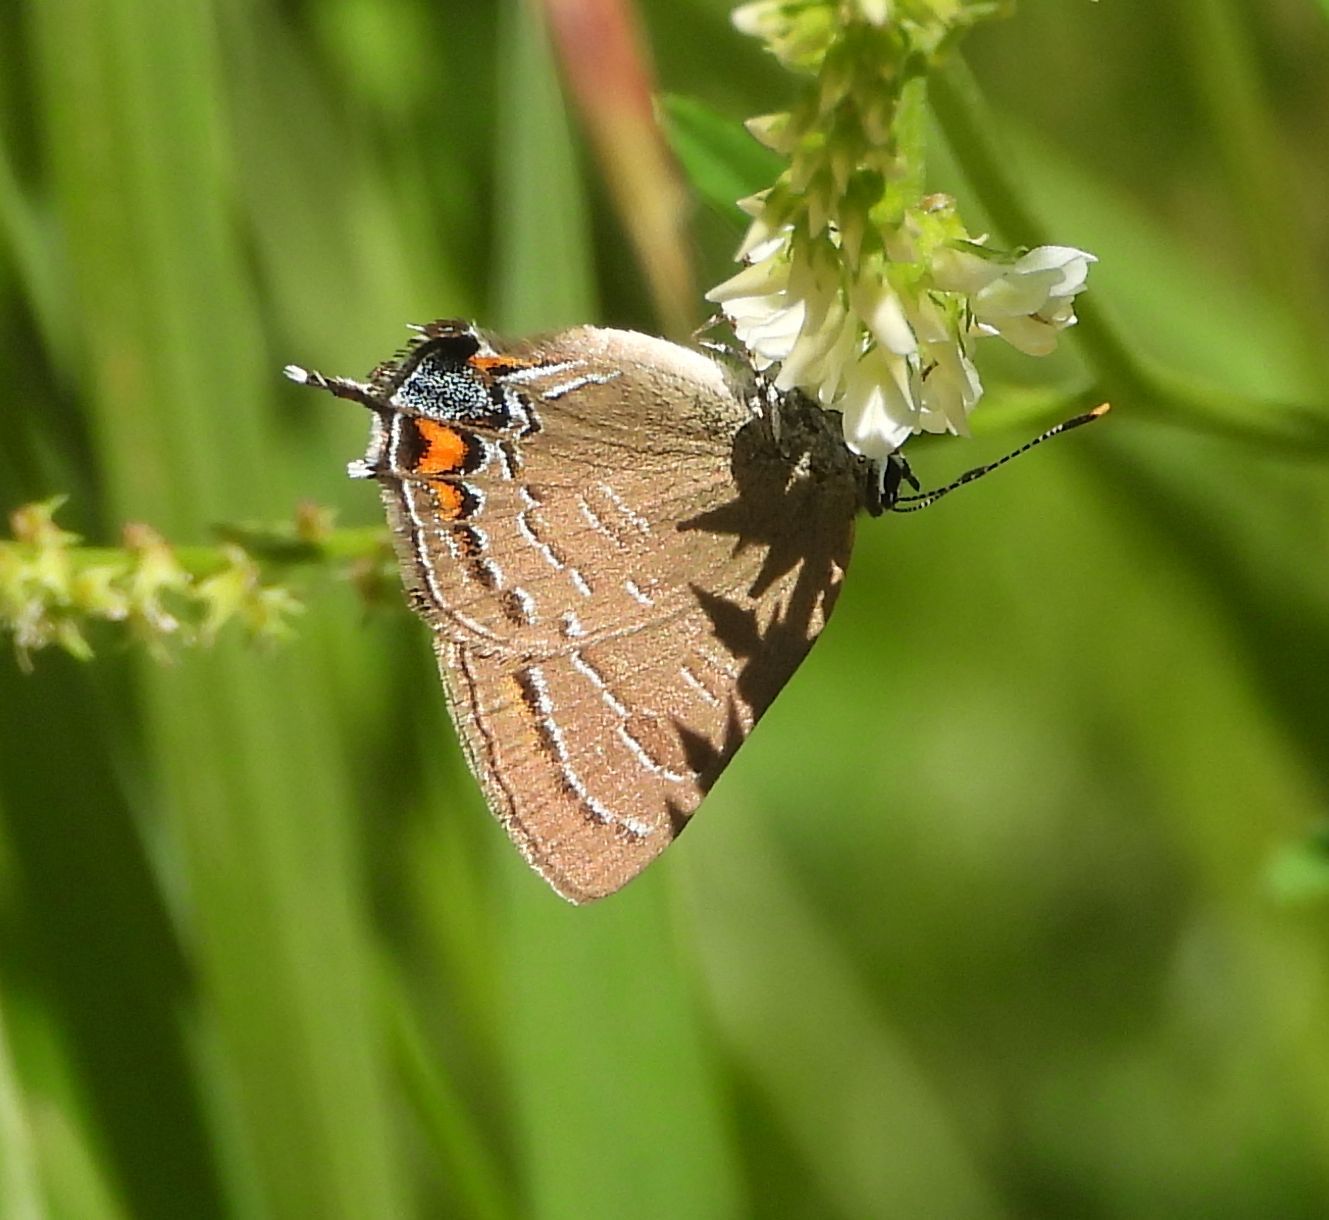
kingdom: Animalia
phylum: Arthropoda
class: Insecta
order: Lepidoptera
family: Lycaenidae
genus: Satyrium
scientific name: Satyrium calanus
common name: Banded hairstreak
